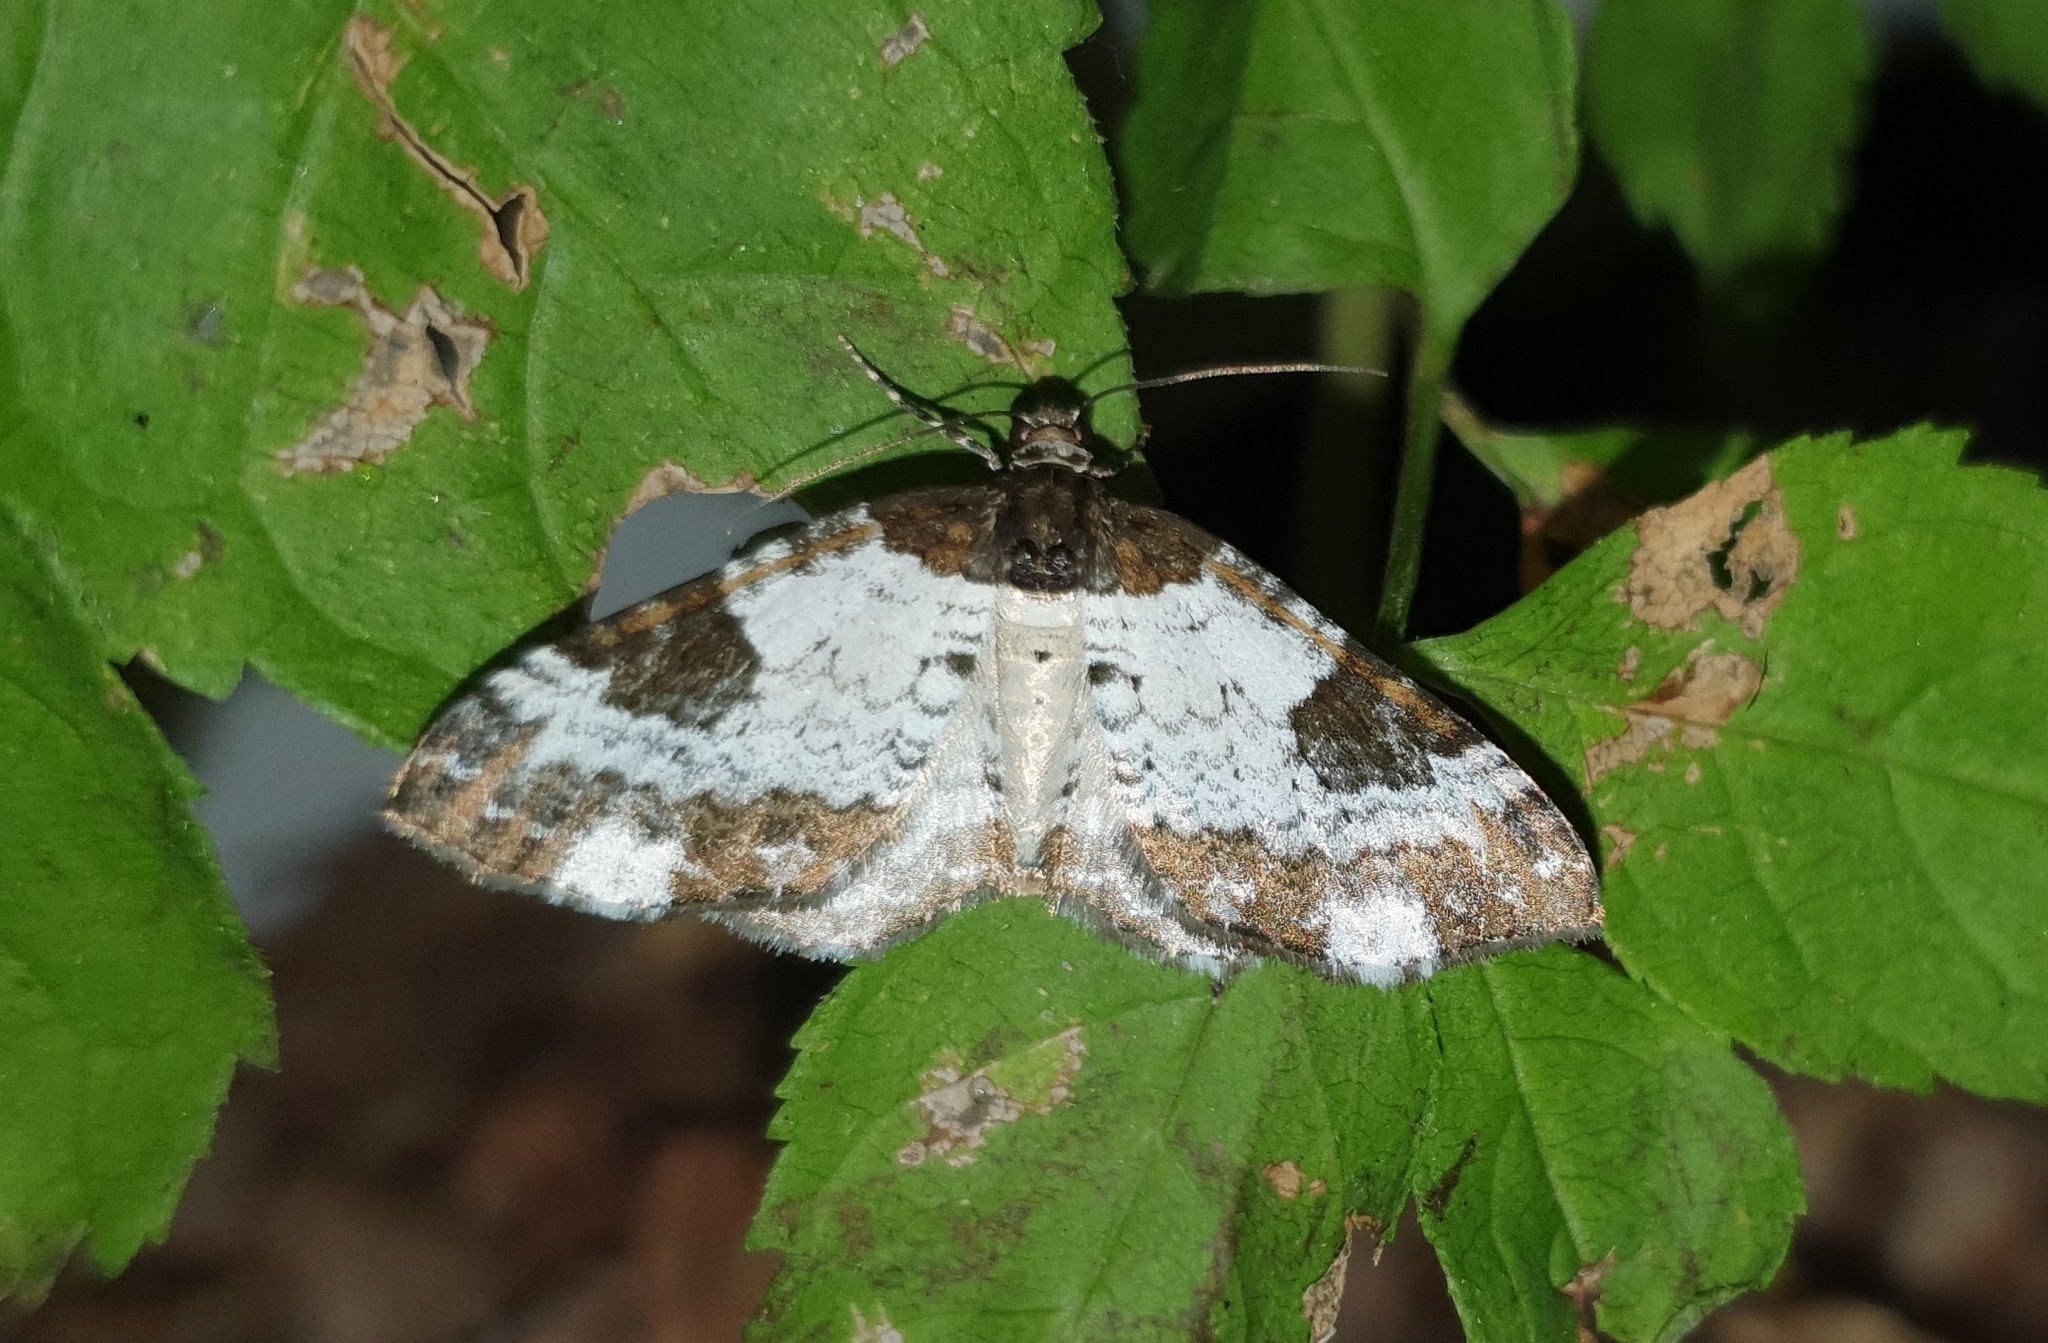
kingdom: Animalia
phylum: Arthropoda
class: Insecta
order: Lepidoptera
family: Geometridae
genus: Melanthia
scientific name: Melanthia procellata
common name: Pretty chalk carpet
